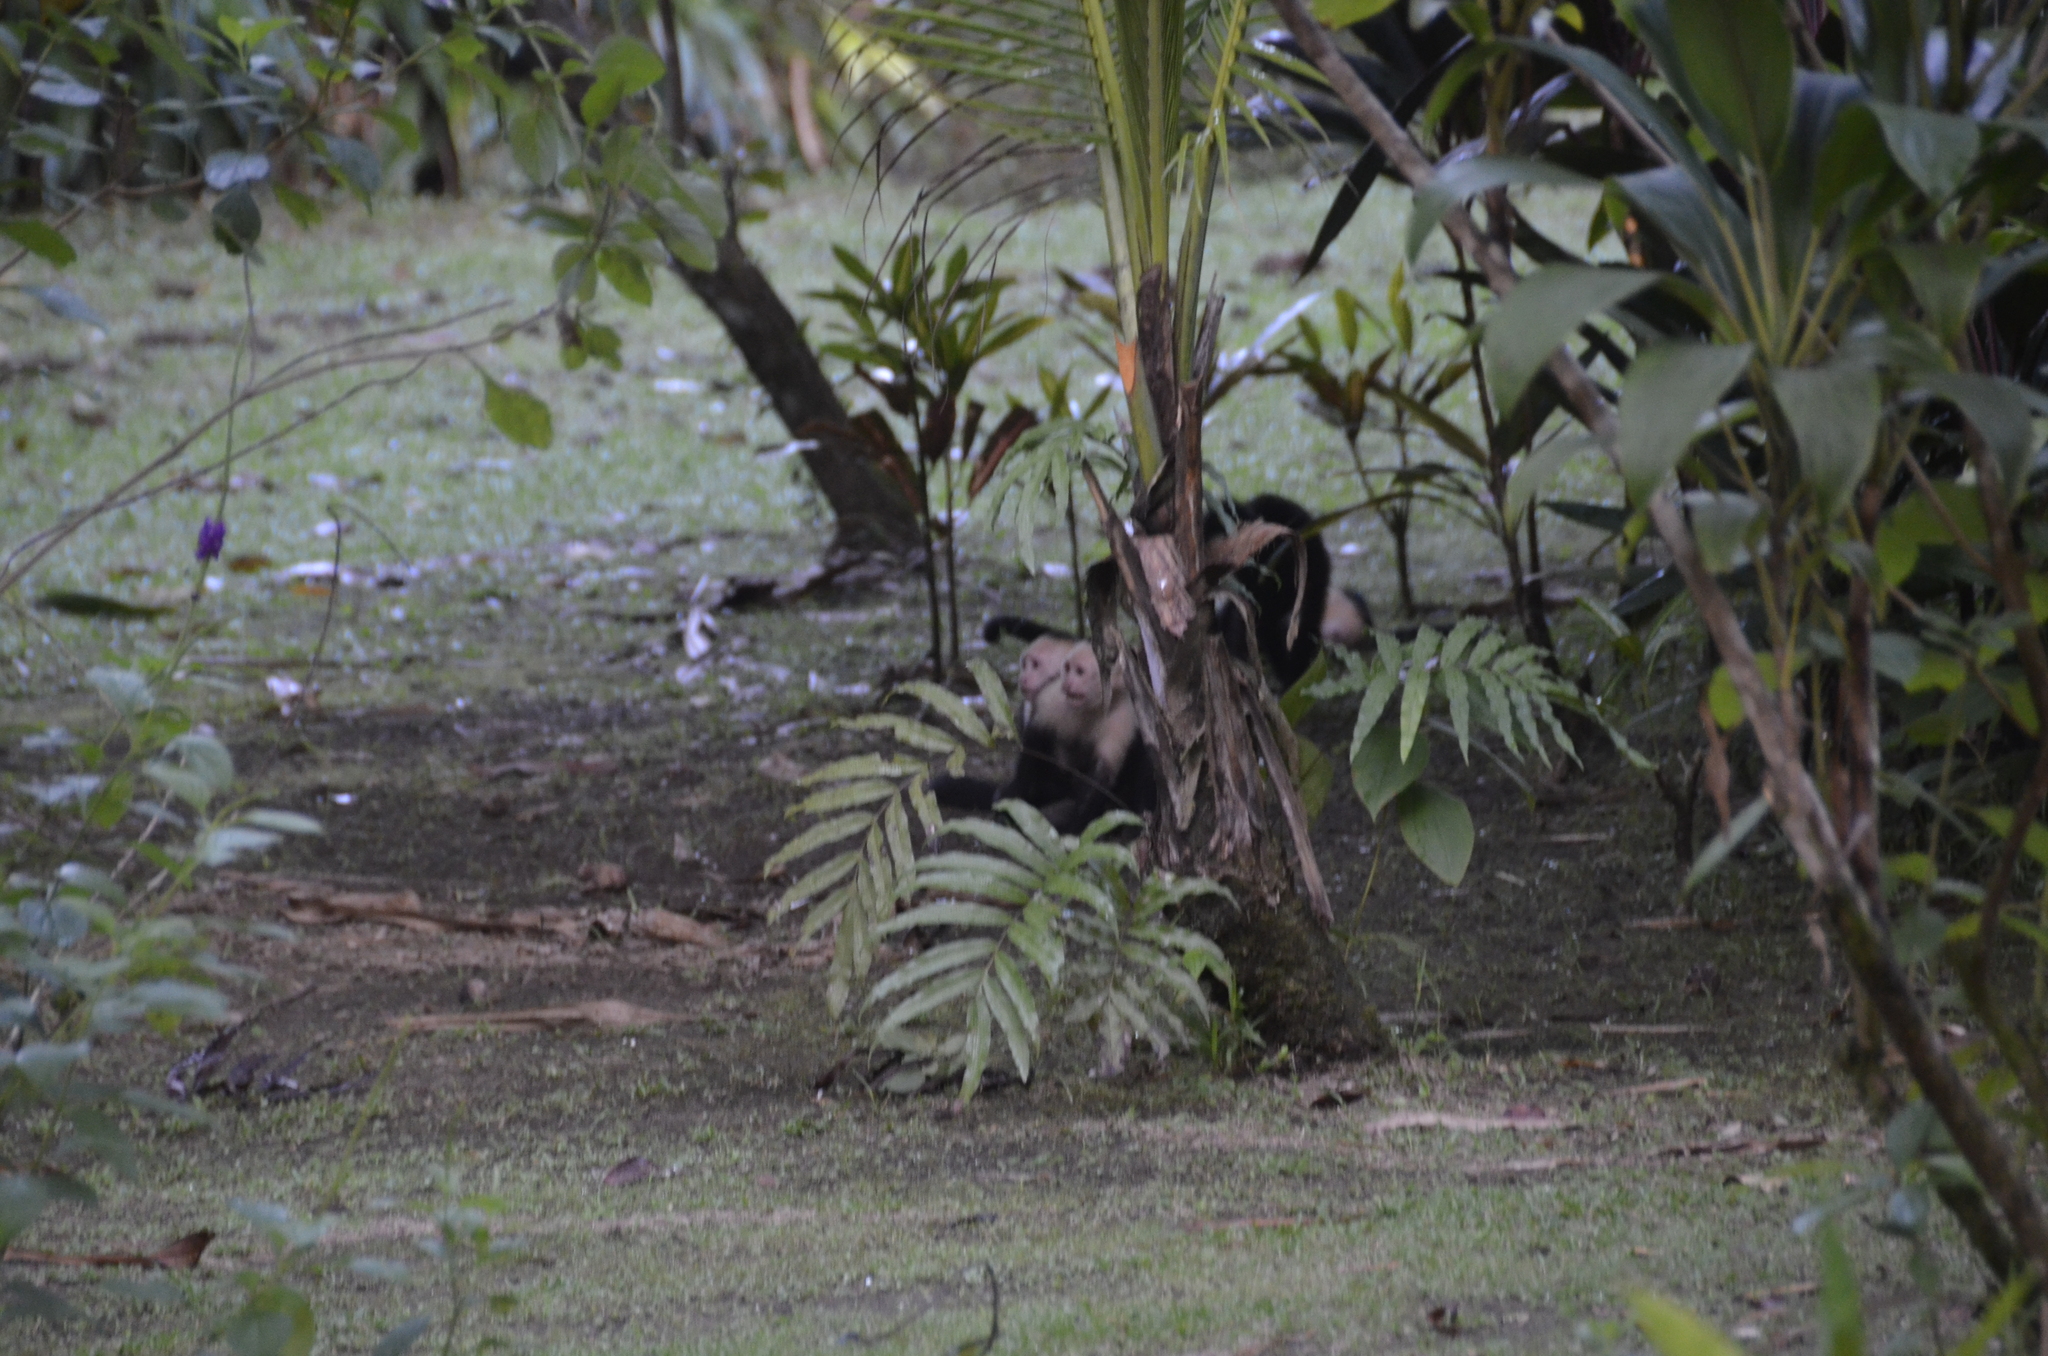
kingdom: Animalia
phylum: Chordata
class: Mammalia
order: Primates
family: Cebidae
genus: Cebus
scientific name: Cebus imitator
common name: Panamanian white-faced capuchin
